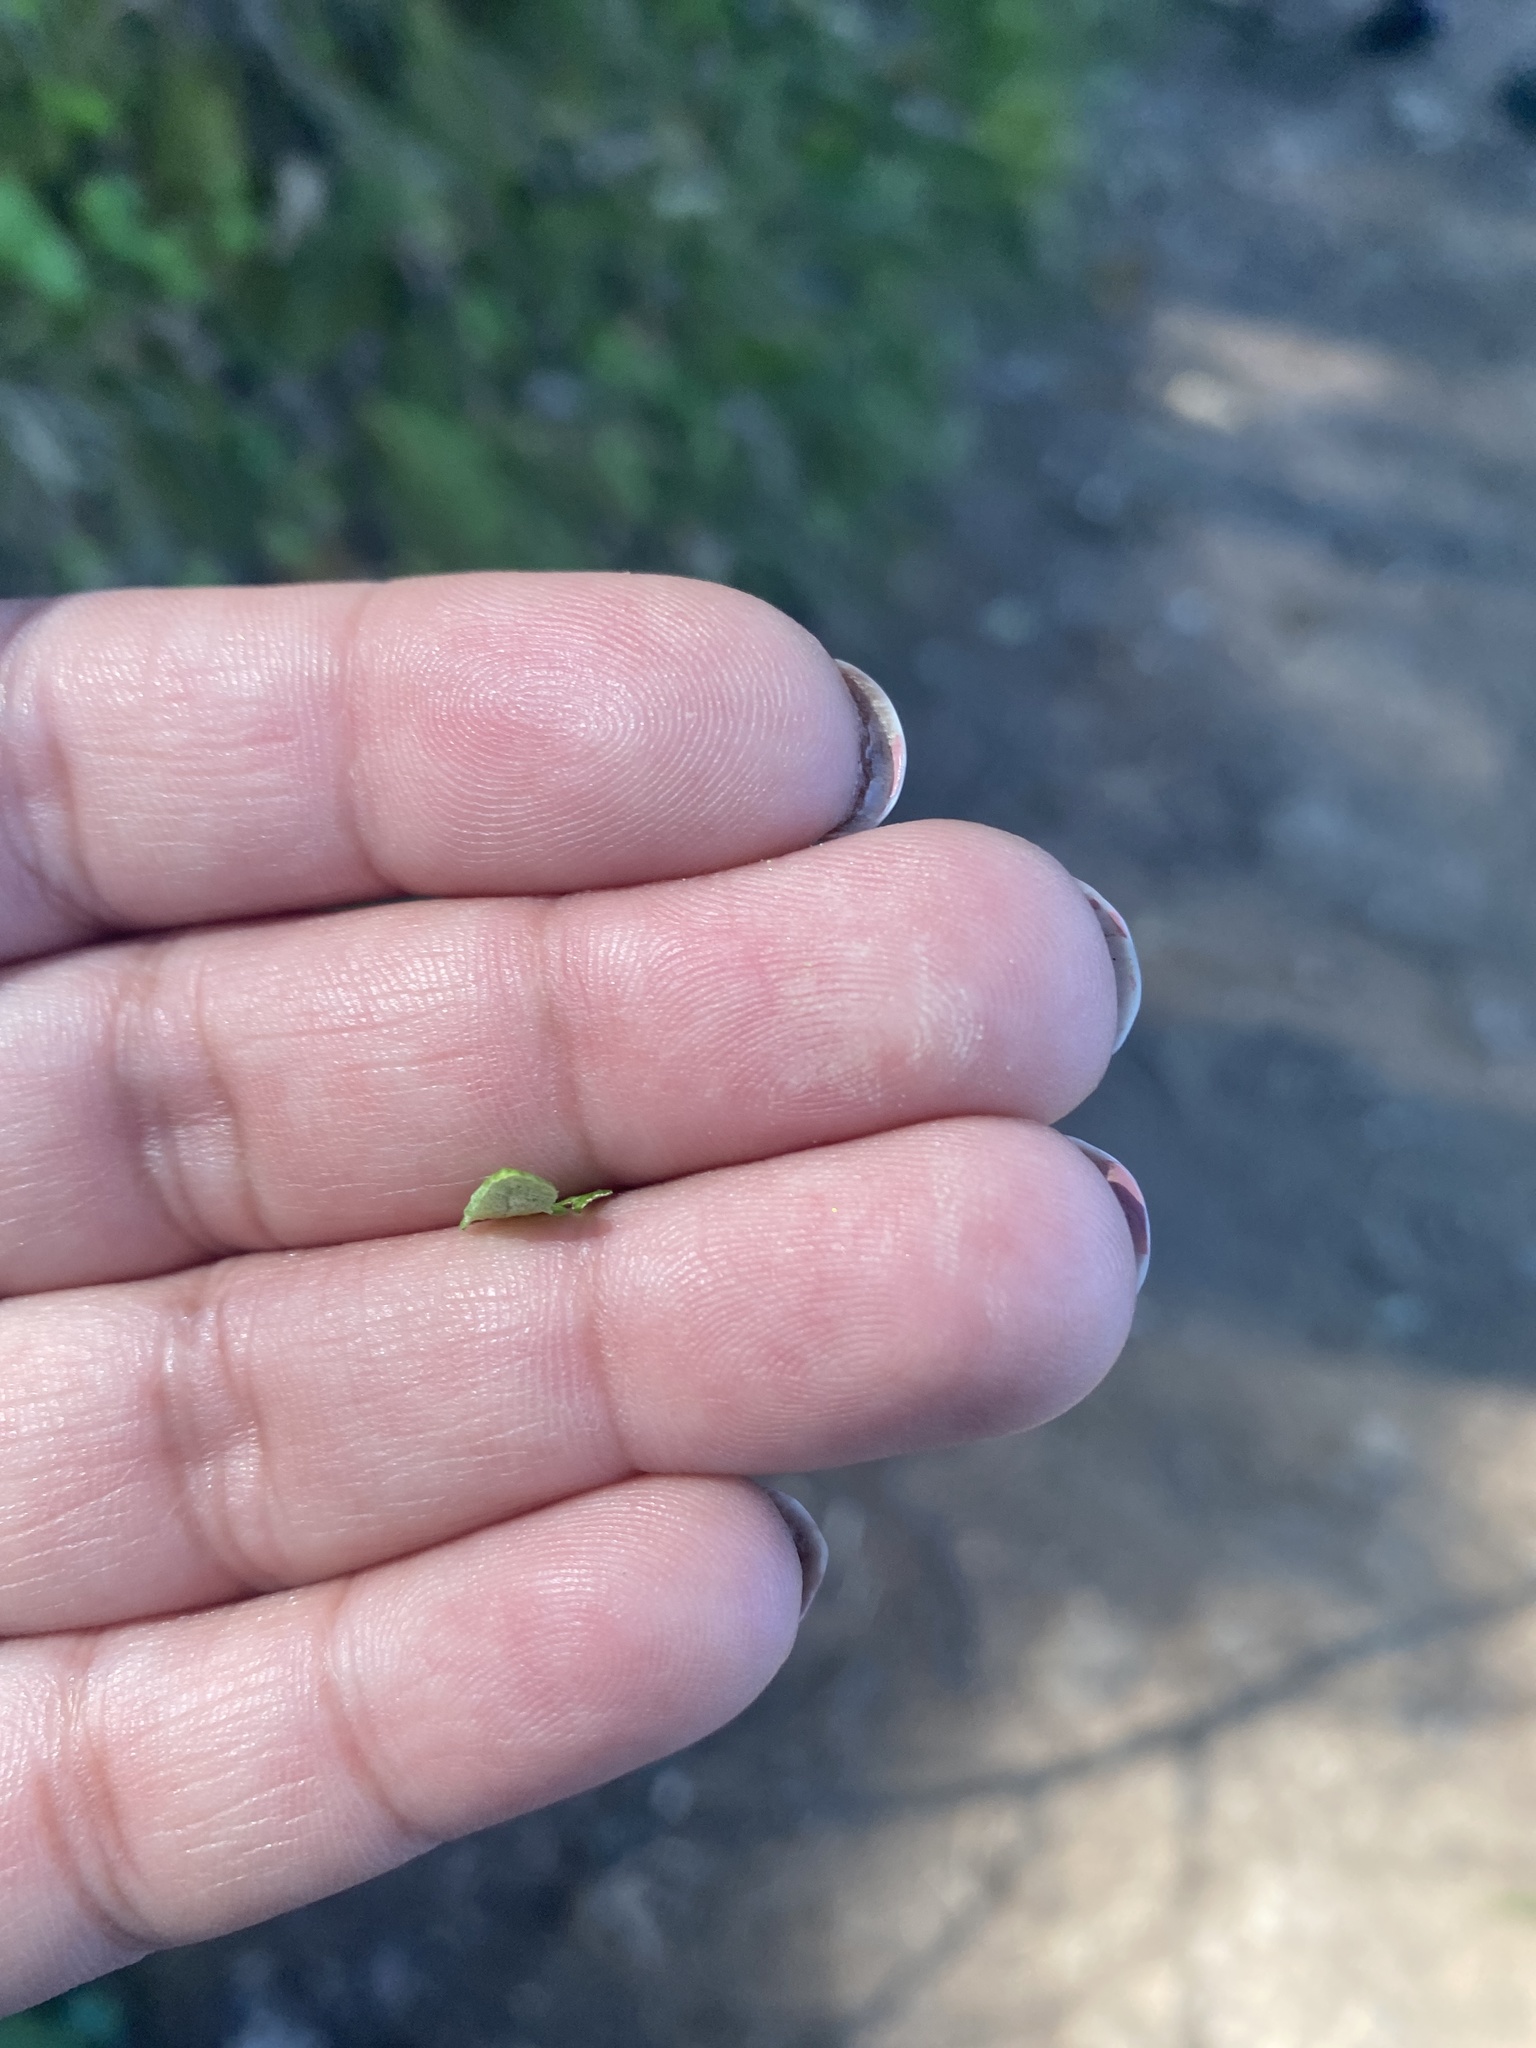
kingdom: Plantae
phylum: Tracheophyta
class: Polypodiopsida
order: Polypodiales
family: Pteridaceae
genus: Pentagramma
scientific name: Pentagramma triangularis
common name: Gold fern
